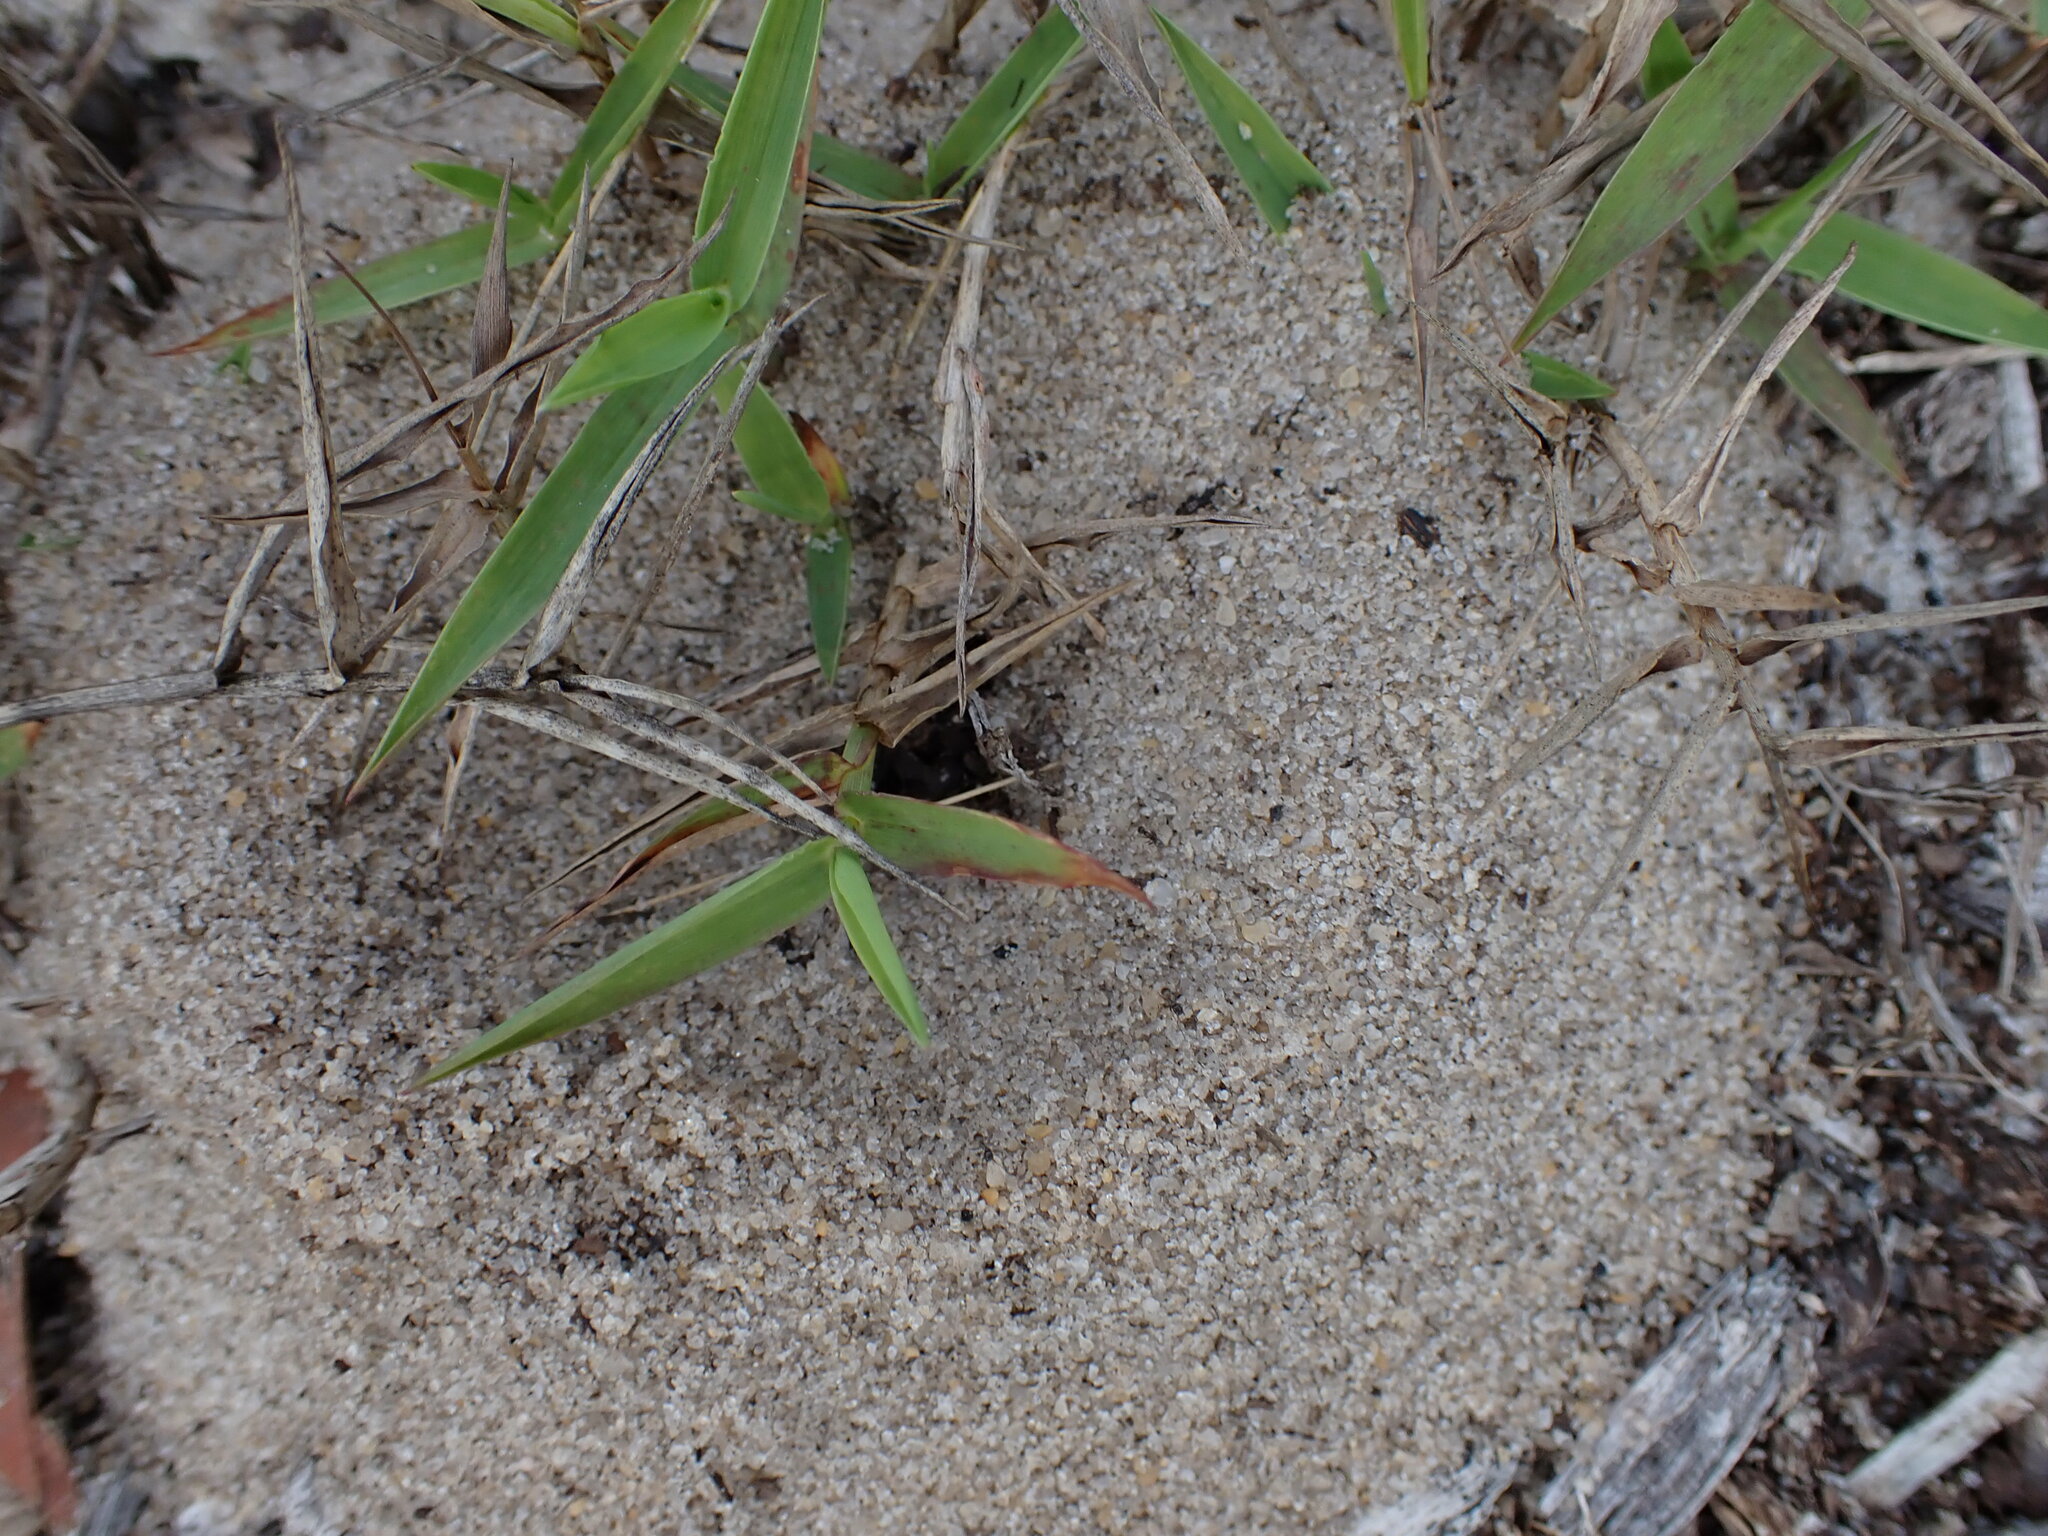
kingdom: Animalia
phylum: Arthropoda
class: Insecta
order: Hymenoptera
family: Formicidae
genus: Forelius
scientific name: Forelius pruinosus
